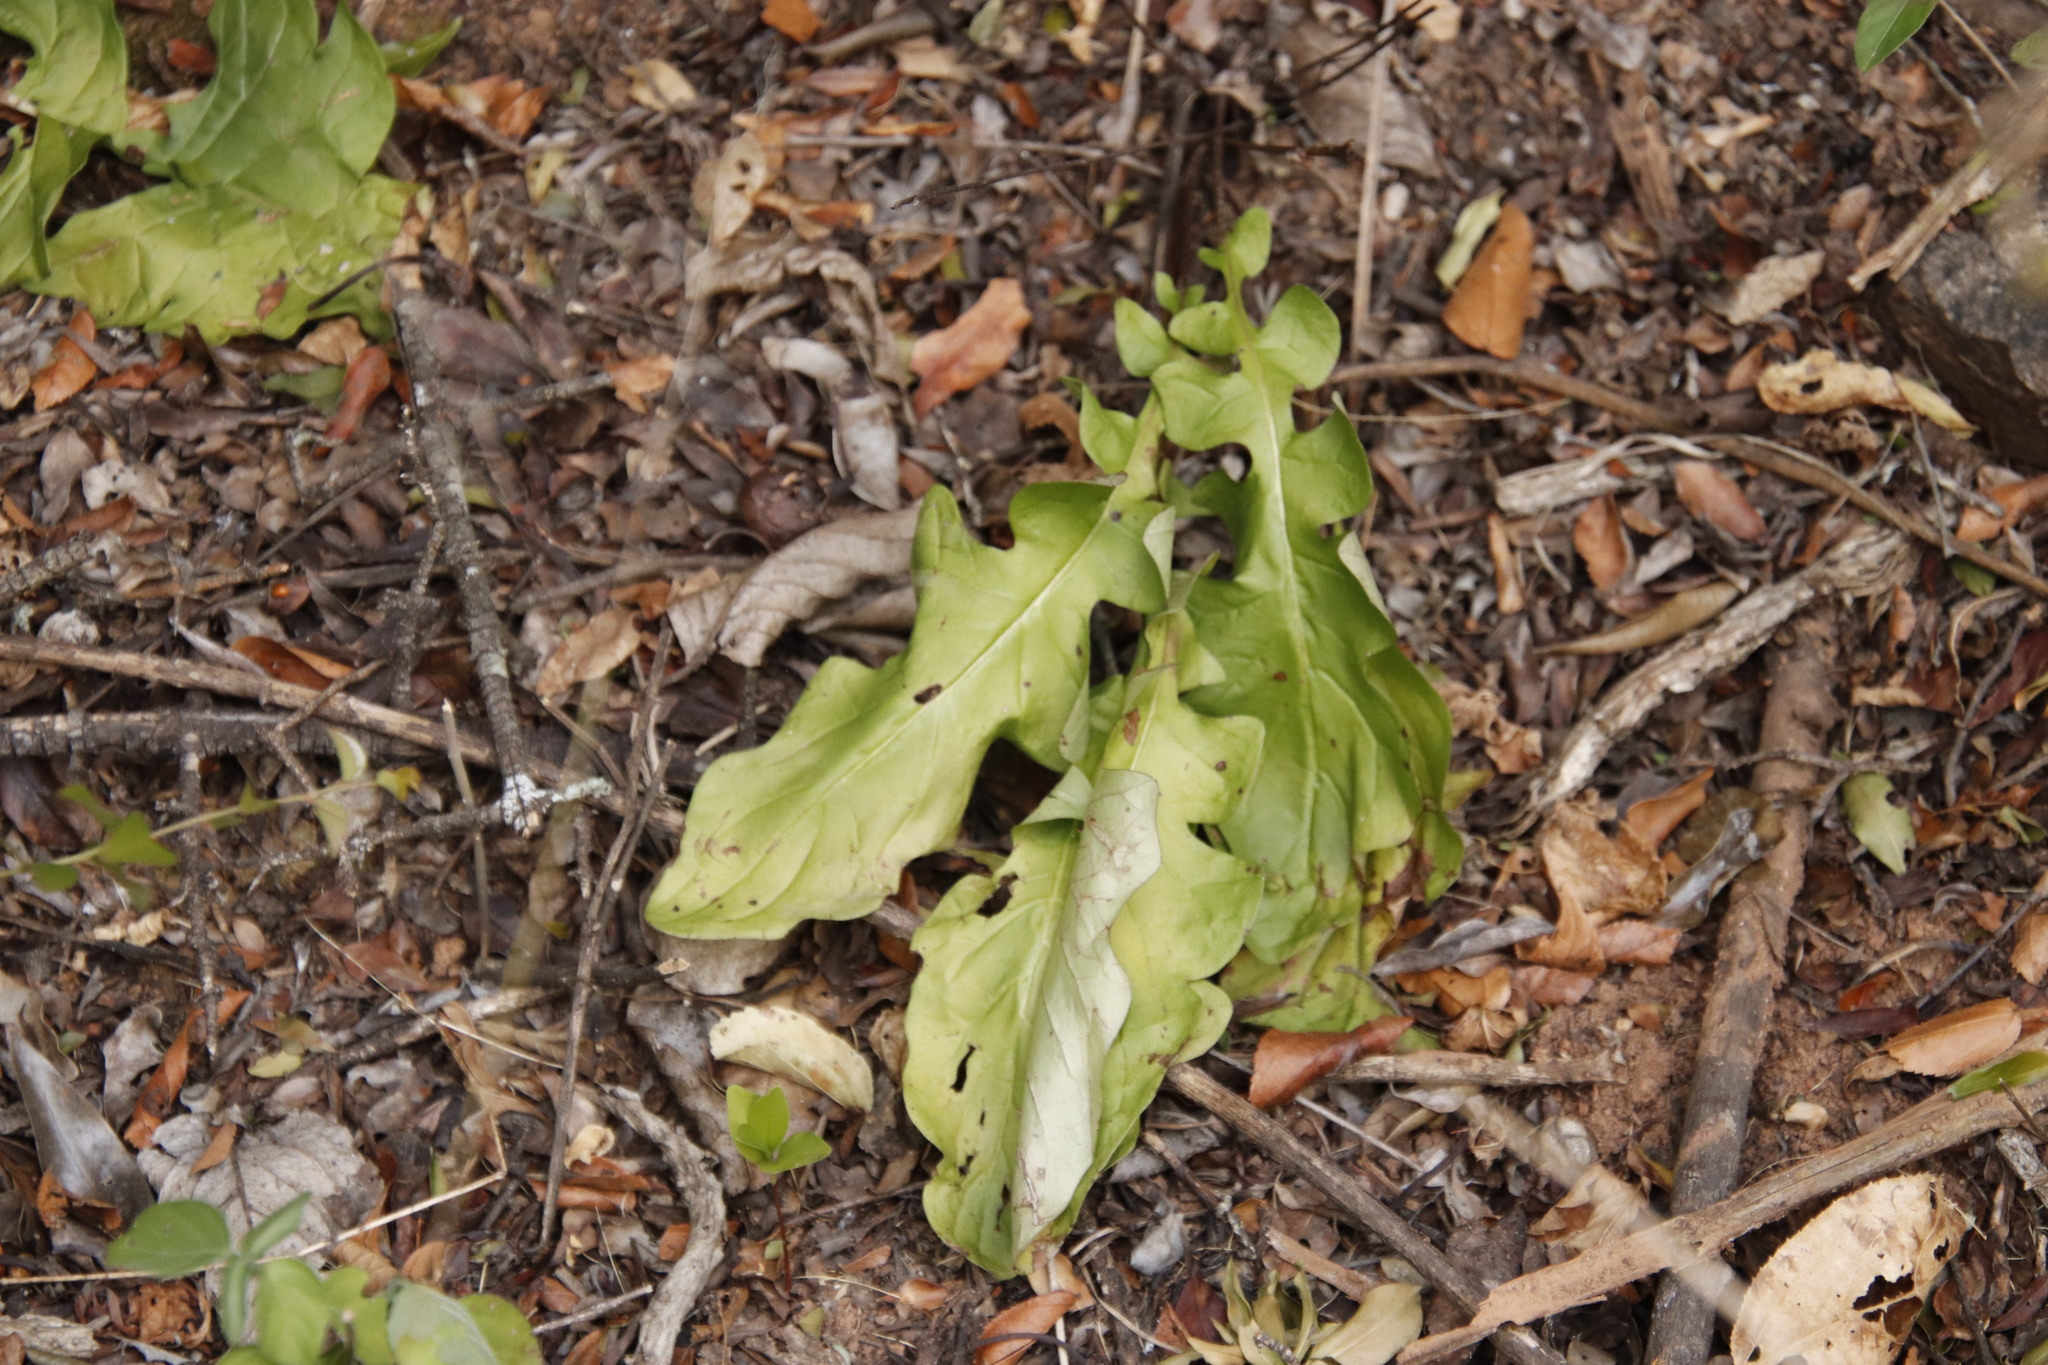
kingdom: Plantae
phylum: Tracheophyta
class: Magnoliopsida
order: Asterales
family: Asteraceae
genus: Gerbera
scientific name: Gerbera jamesonii
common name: African daisy
